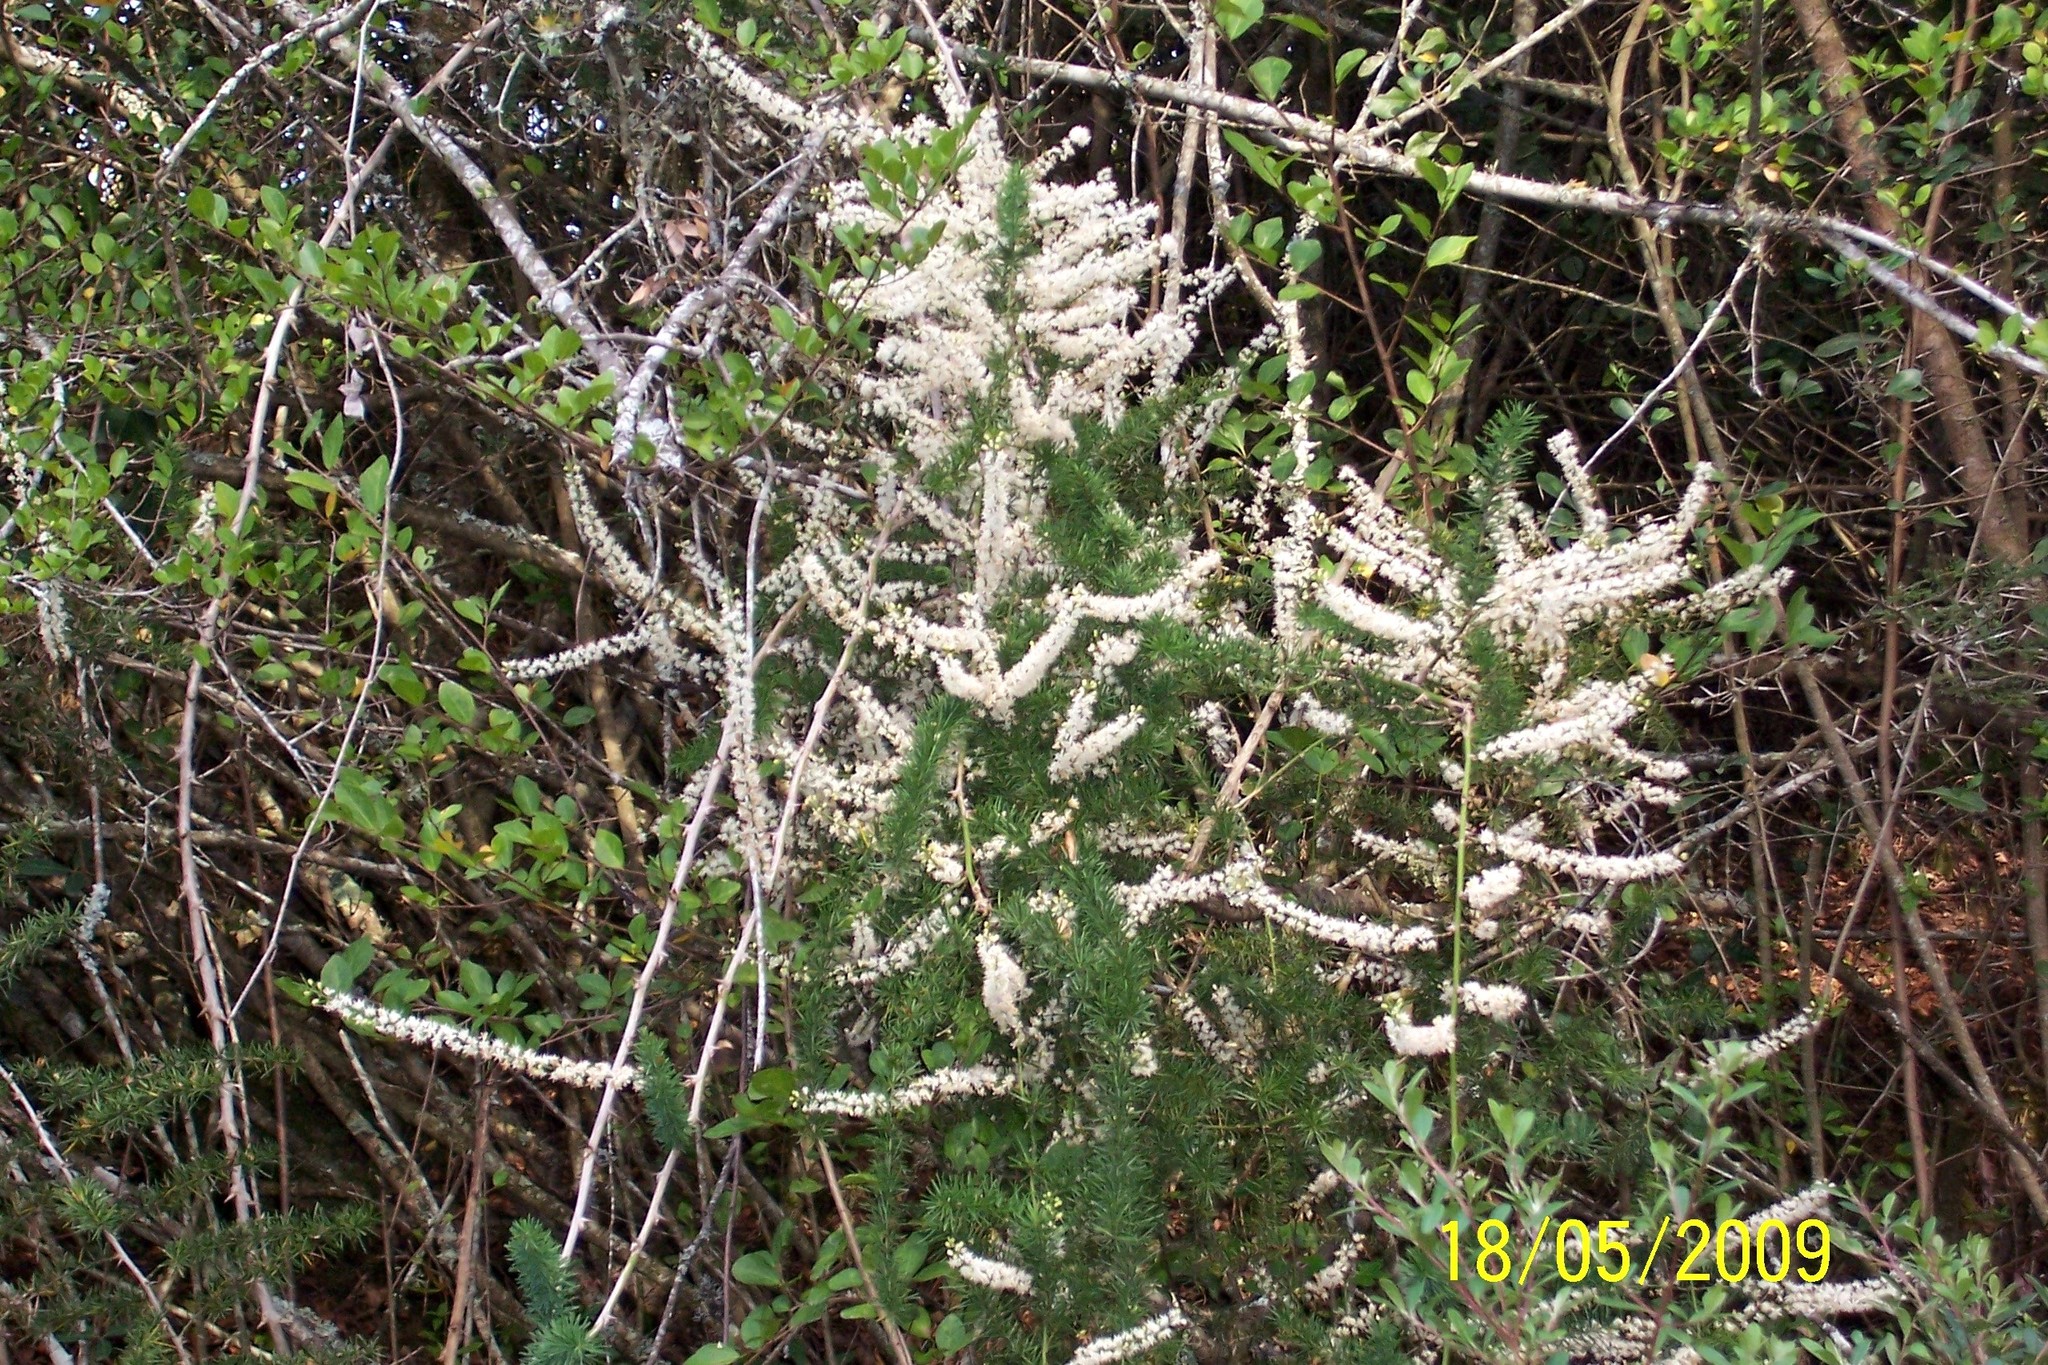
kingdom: Plantae
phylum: Tracheophyta
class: Liliopsida
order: Asparagales
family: Asparagaceae
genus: Asparagus
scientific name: Asparagus aethiopicus
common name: Sprenger's asparagus fern
